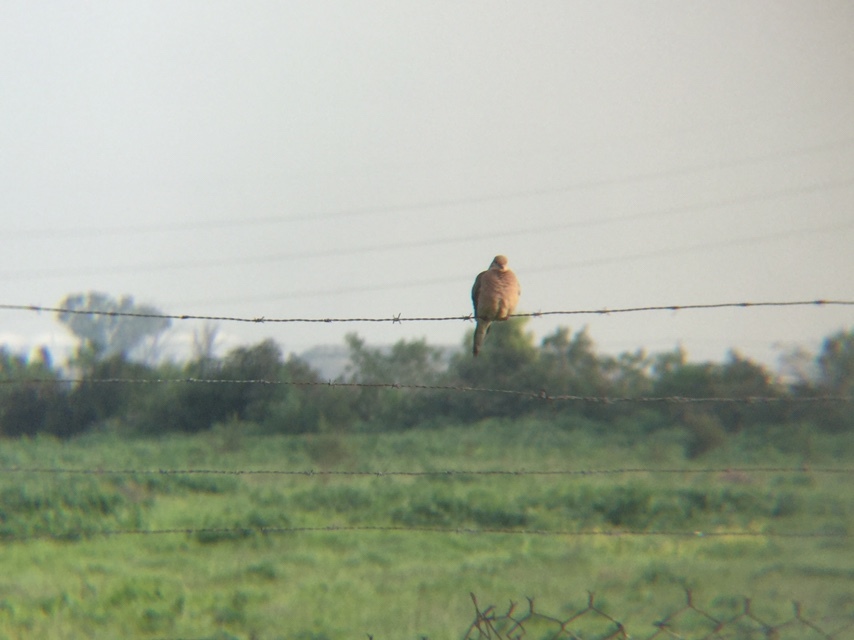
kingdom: Animalia
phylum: Chordata
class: Aves
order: Columbiformes
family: Columbidae
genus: Zenaida
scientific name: Zenaida macroura
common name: Mourning dove
